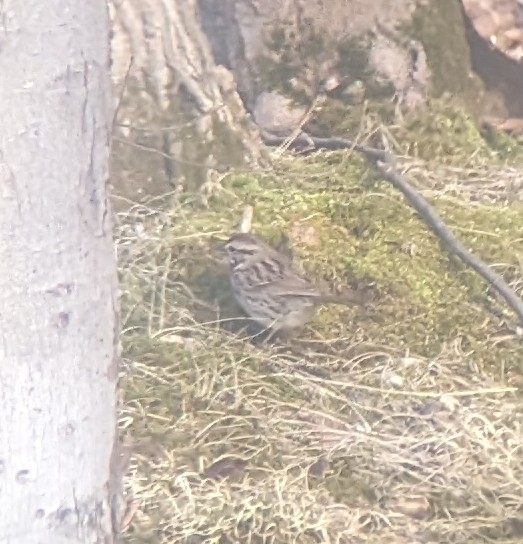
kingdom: Animalia
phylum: Chordata
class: Aves
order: Passeriformes
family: Passerellidae
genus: Melospiza
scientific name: Melospiza melodia
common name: Song sparrow
